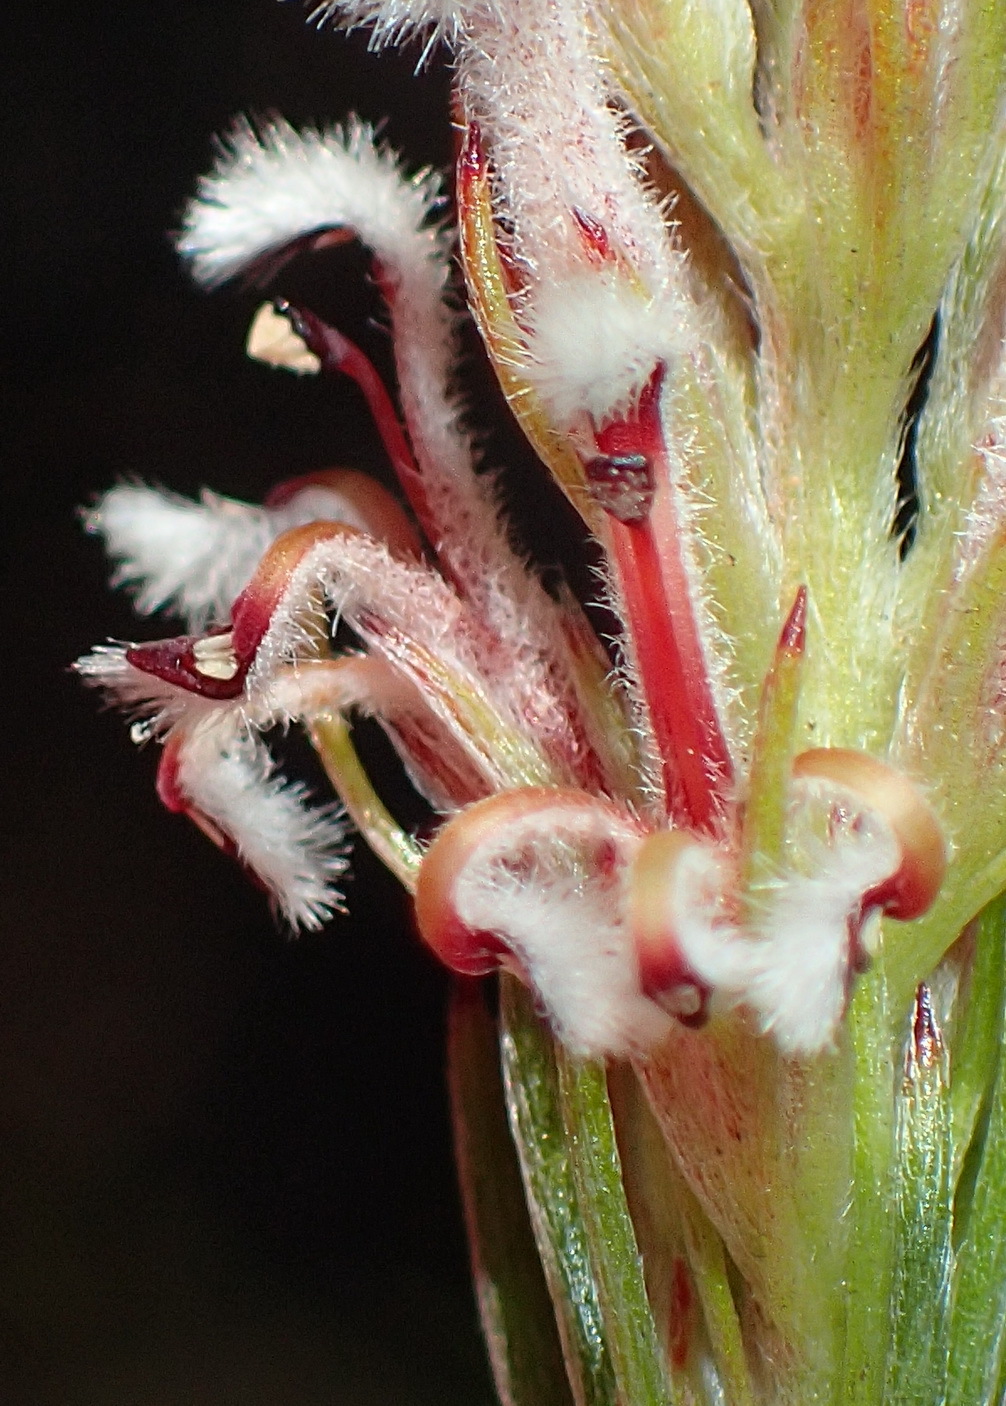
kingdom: Plantae
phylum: Tracheophyta
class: Magnoliopsida
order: Proteales
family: Proteaceae
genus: Spatalla
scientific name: Spatalla barbigera
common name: Fine-leaf spoon
